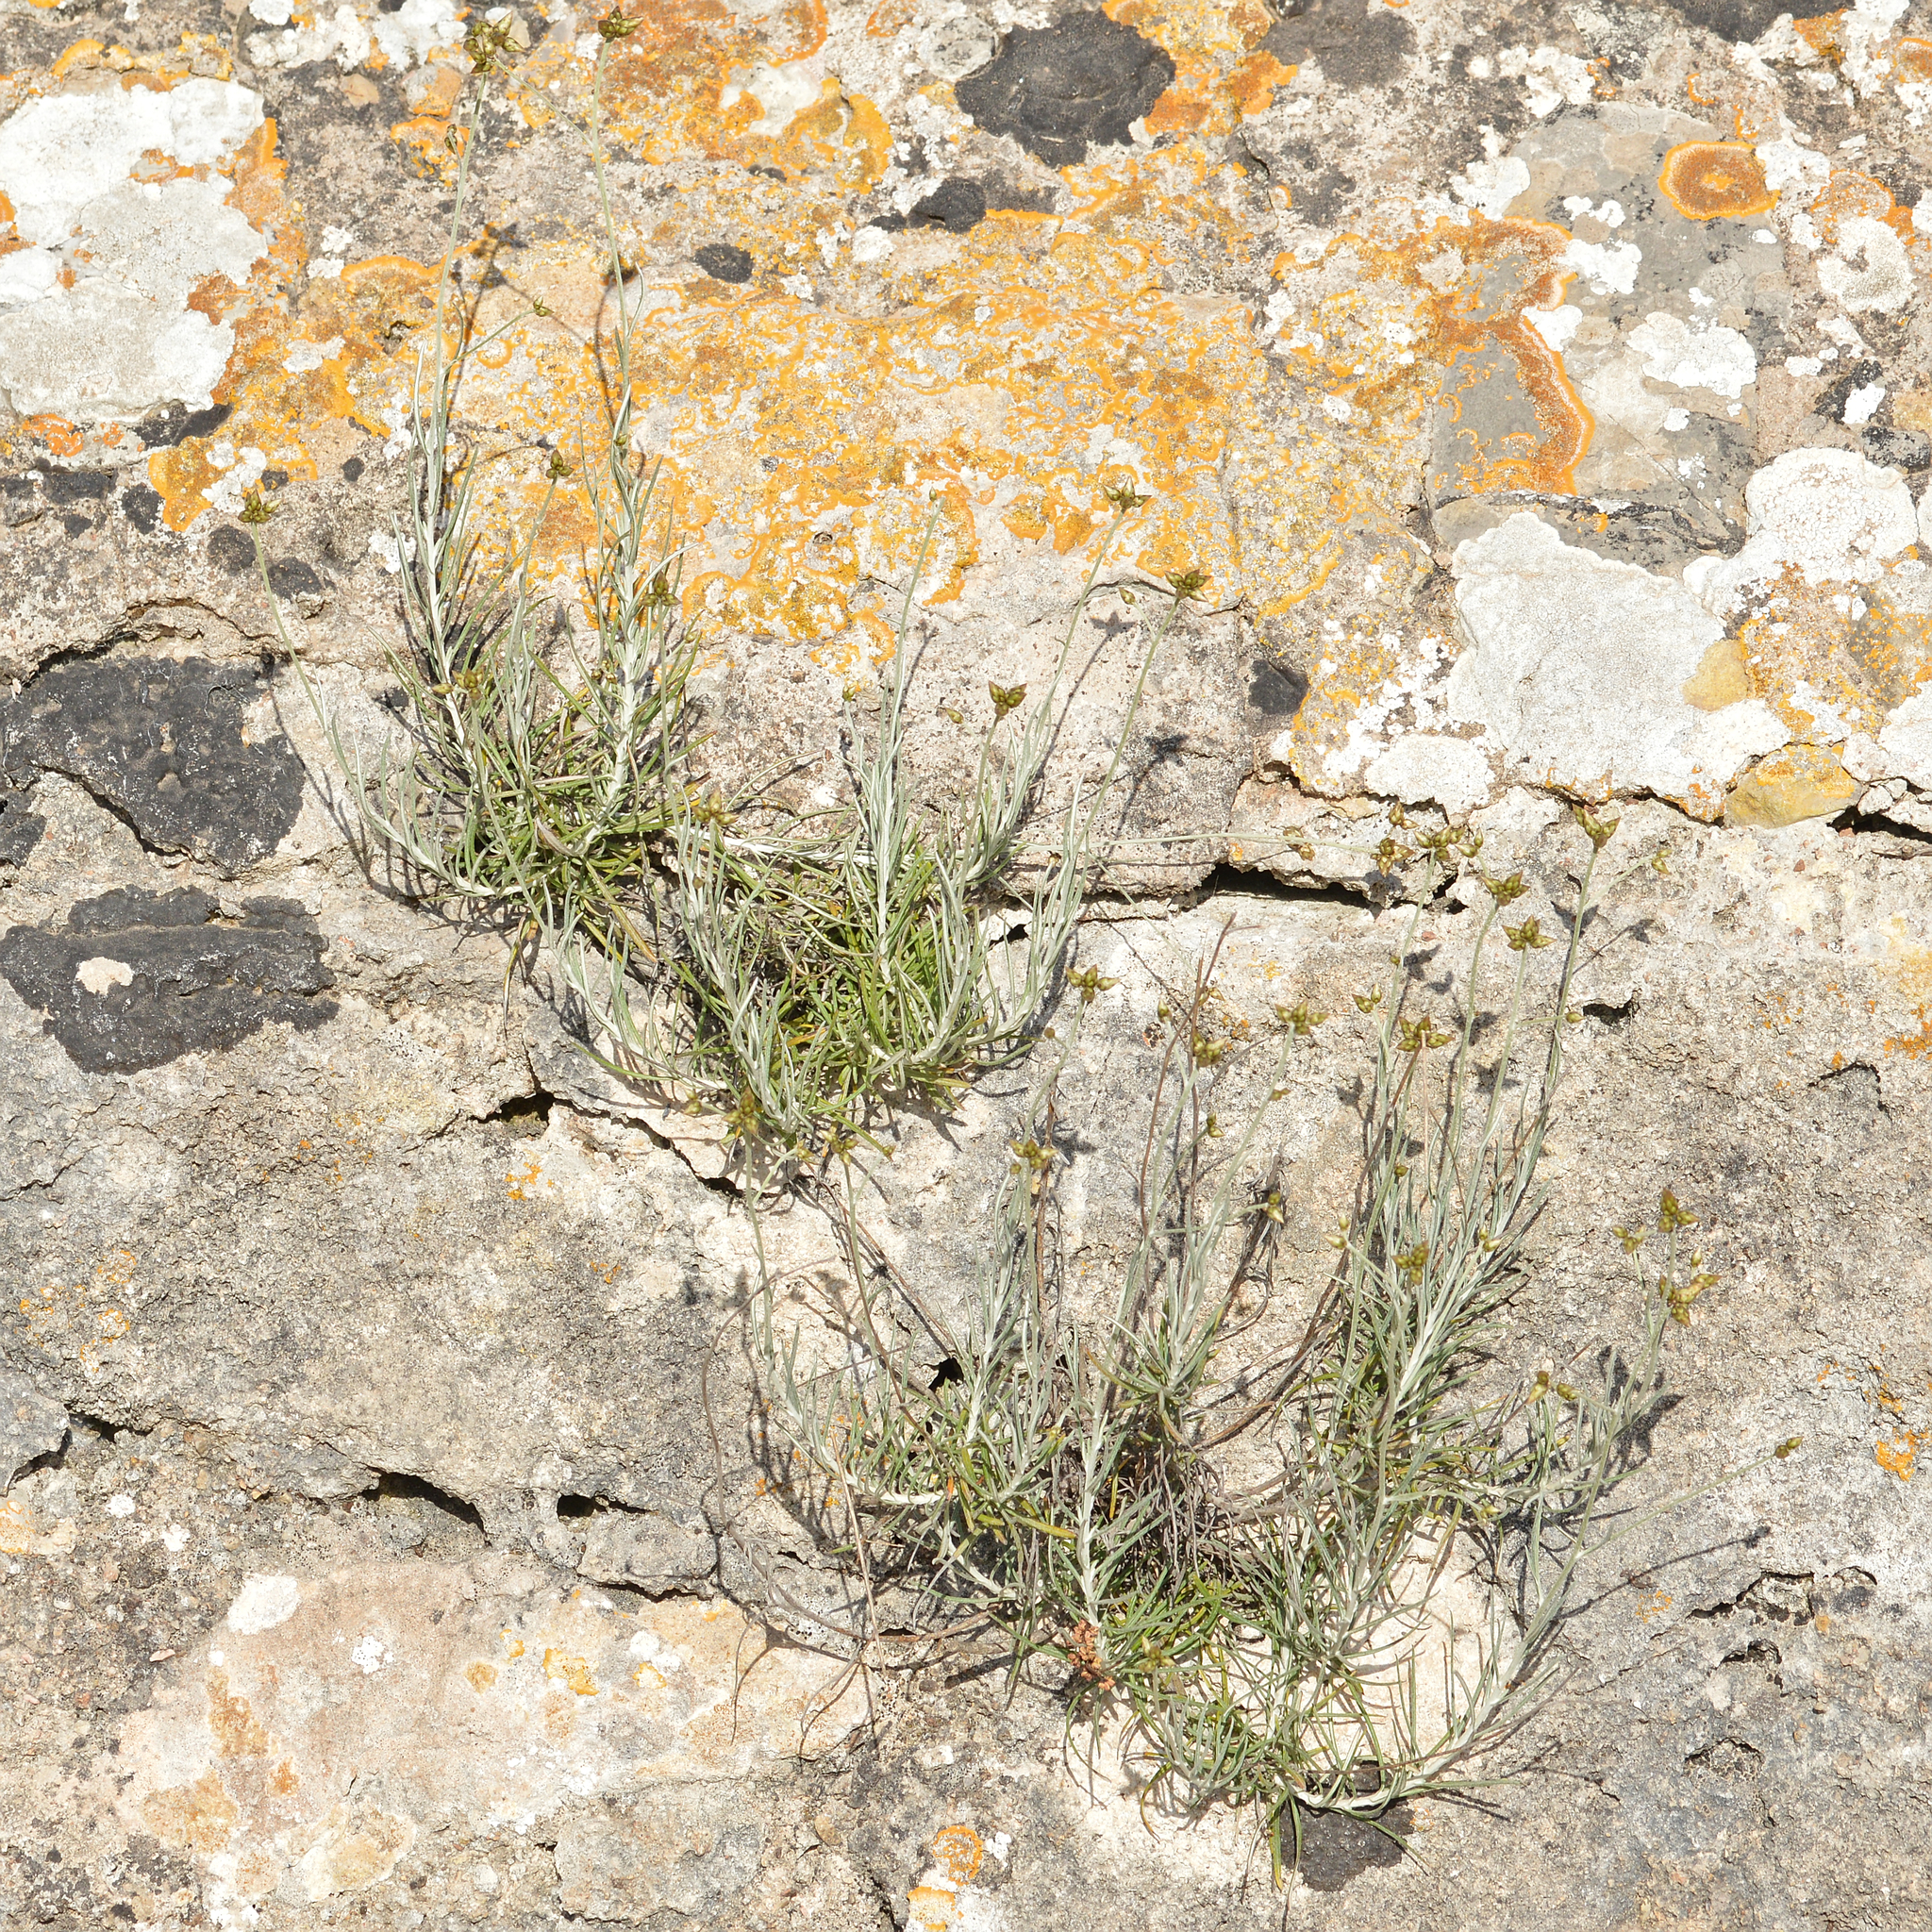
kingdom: Plantae
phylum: Tracheophyta
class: Magnoliopsida
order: Asterales
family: Asteraceae
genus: Phagnalon
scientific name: Phagnalon sordidum
